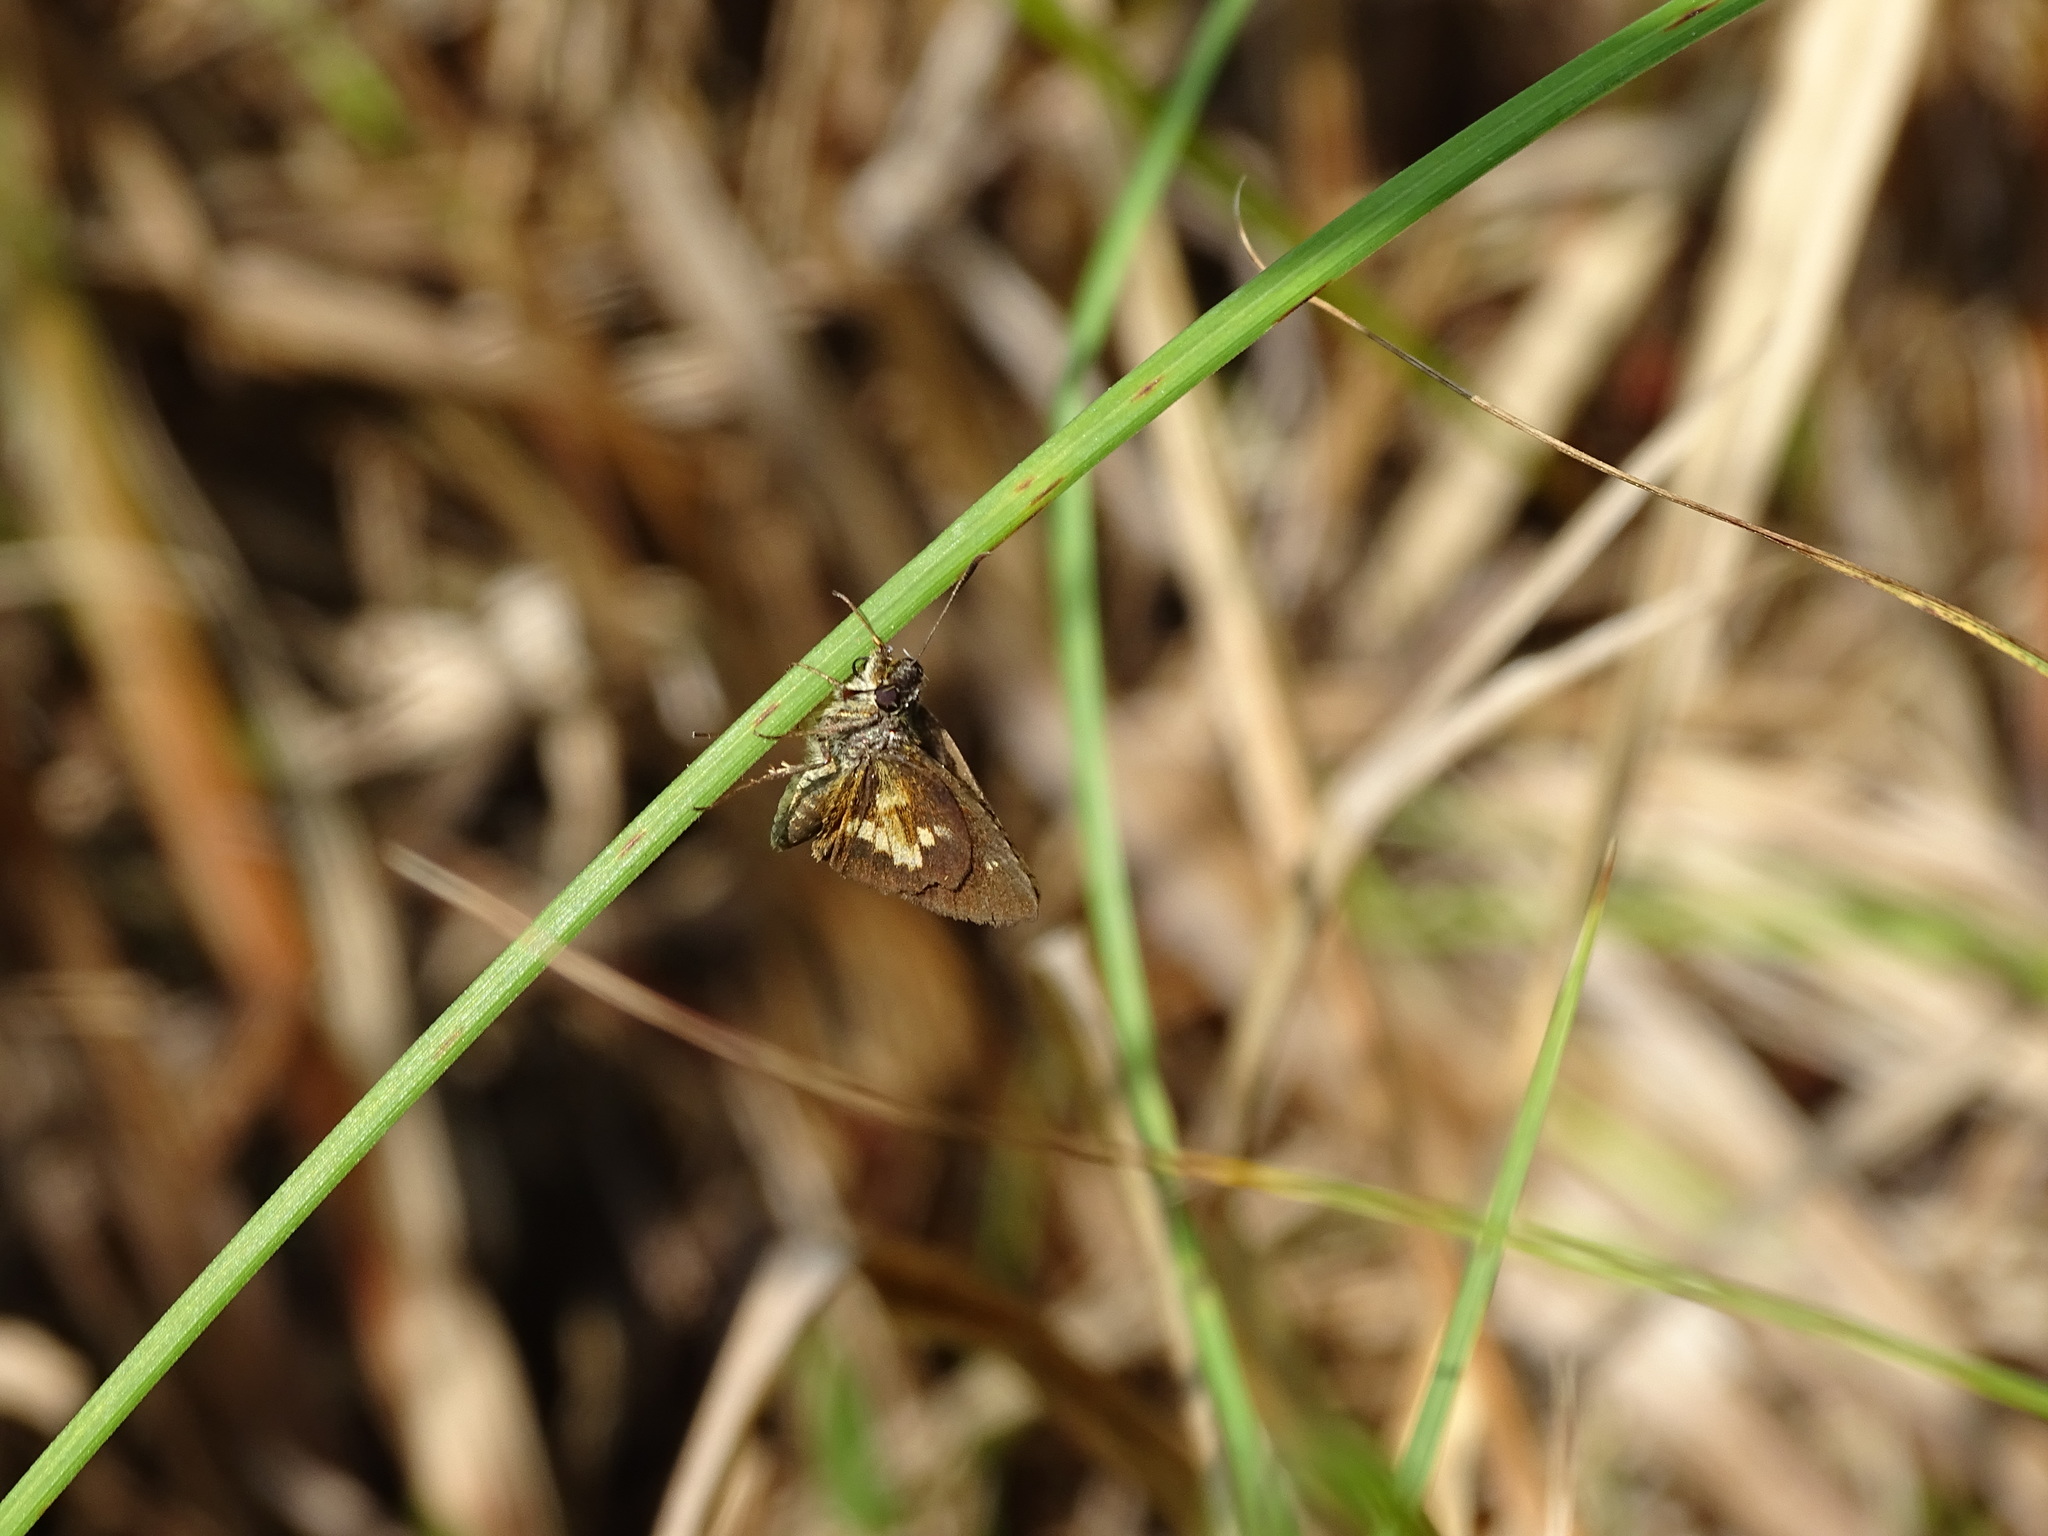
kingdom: Animalia
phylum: Arthropoda
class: Insecta
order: Lepidoptera
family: Hesperiidae
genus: Poanes
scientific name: Poanes massasoit
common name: Mulberrywing
